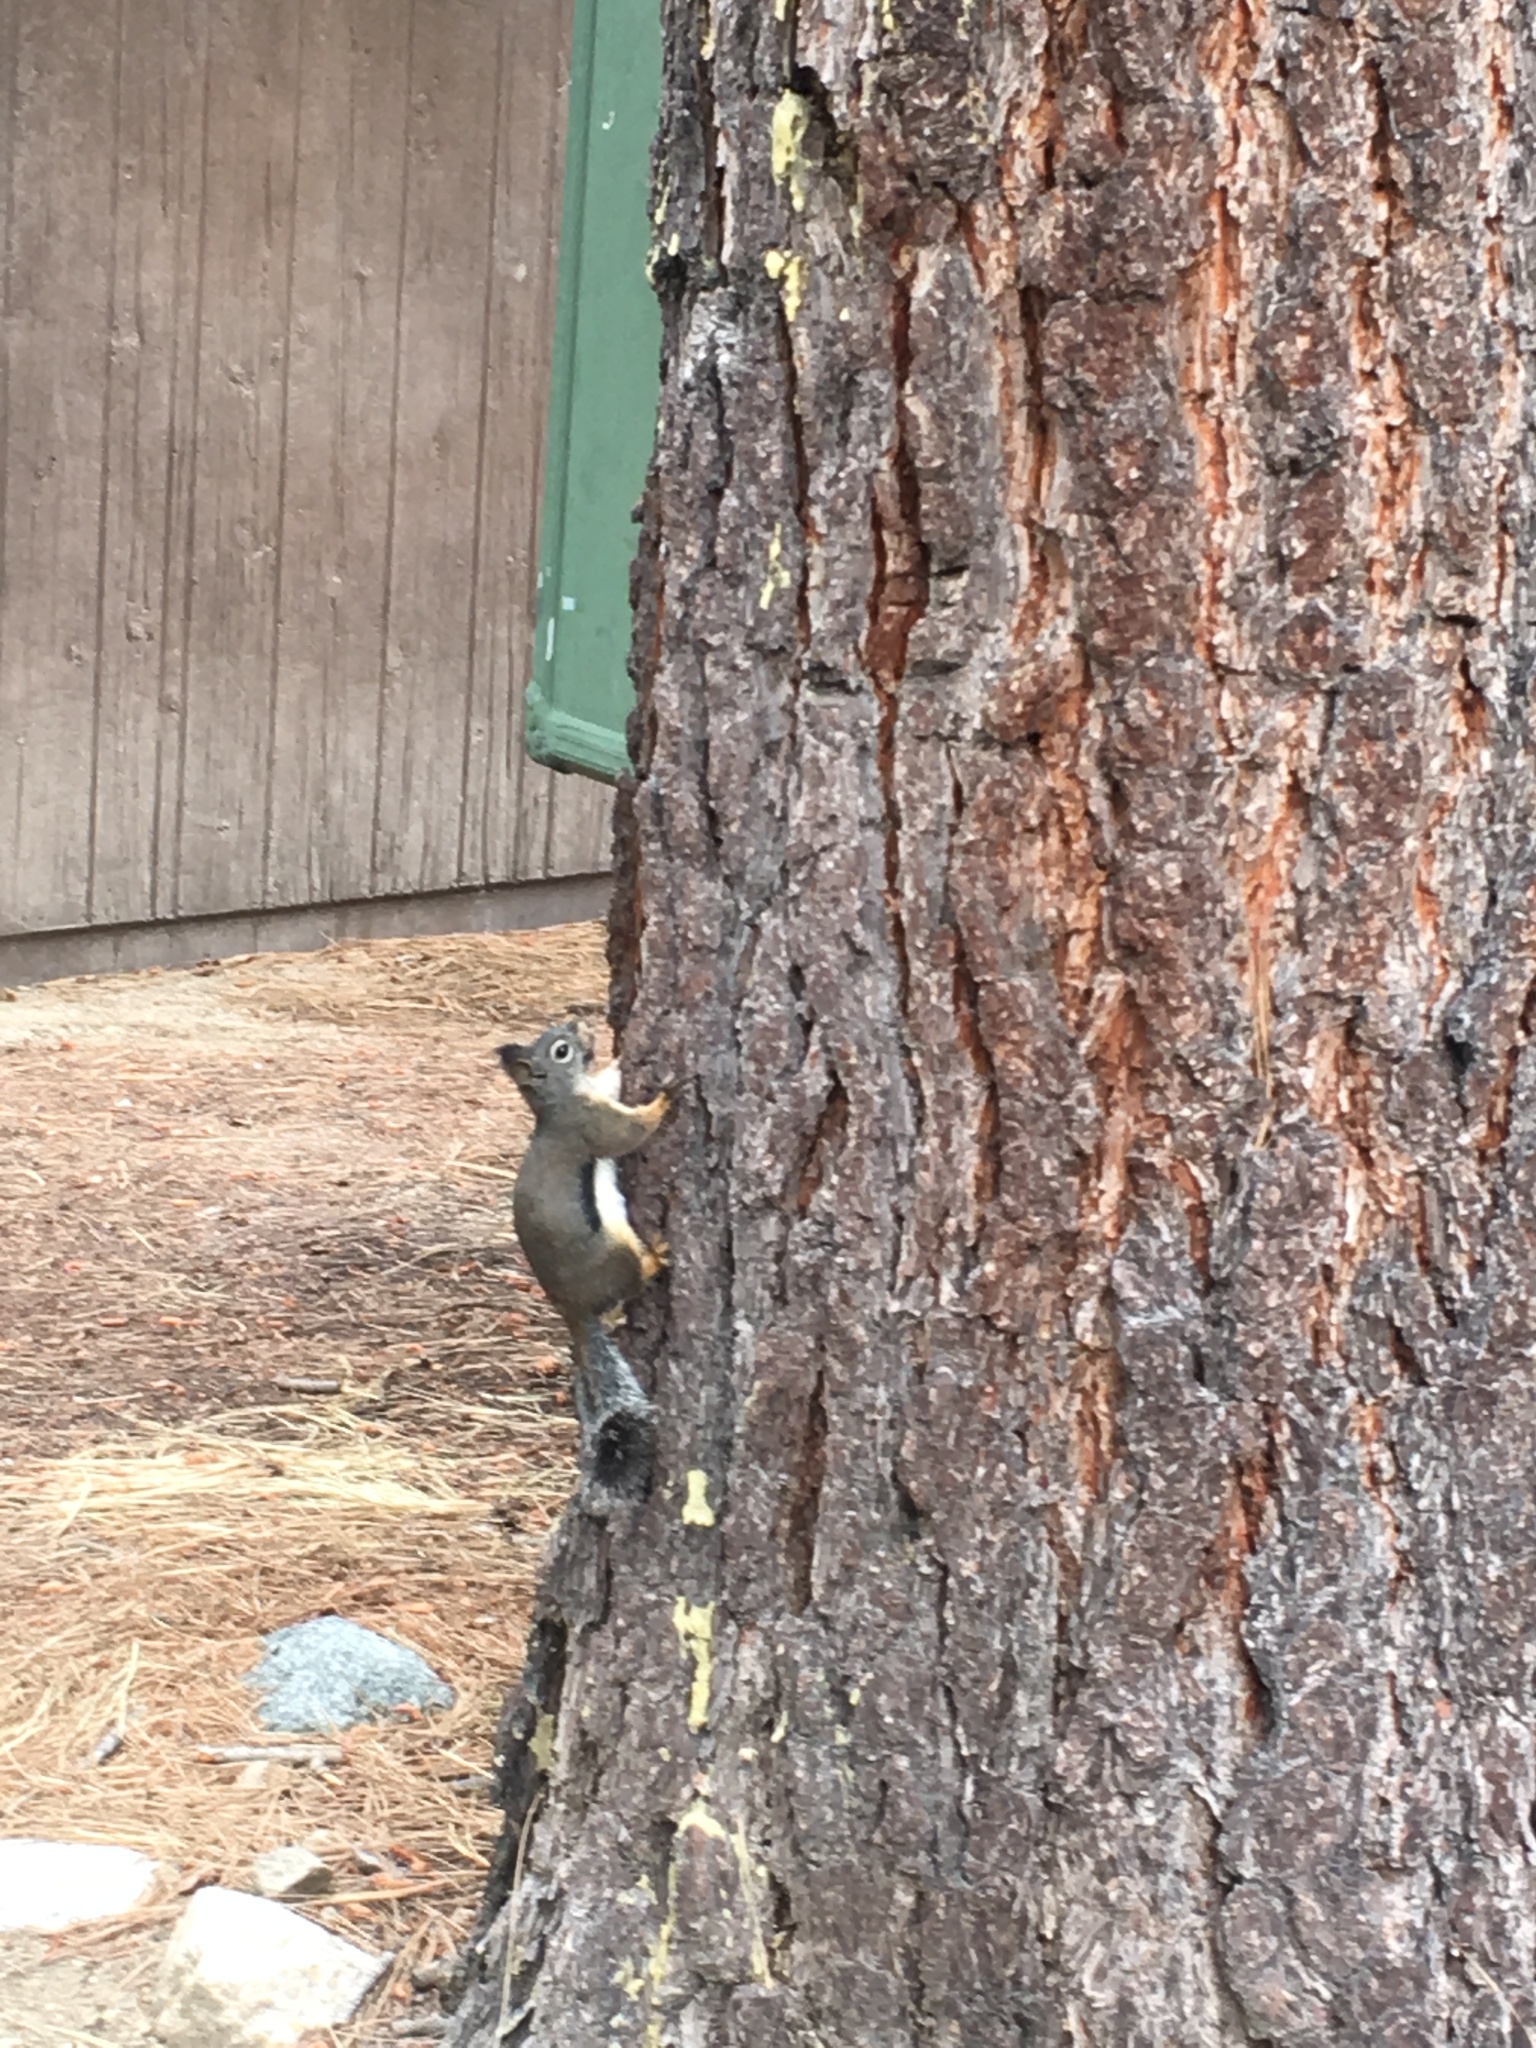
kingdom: Animalia
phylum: Chordata
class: Mammalia
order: Rodentia
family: Sciuridae
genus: Tamiasciurus
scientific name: Tamiasciurus douglasii
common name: Douglas's squirrel
